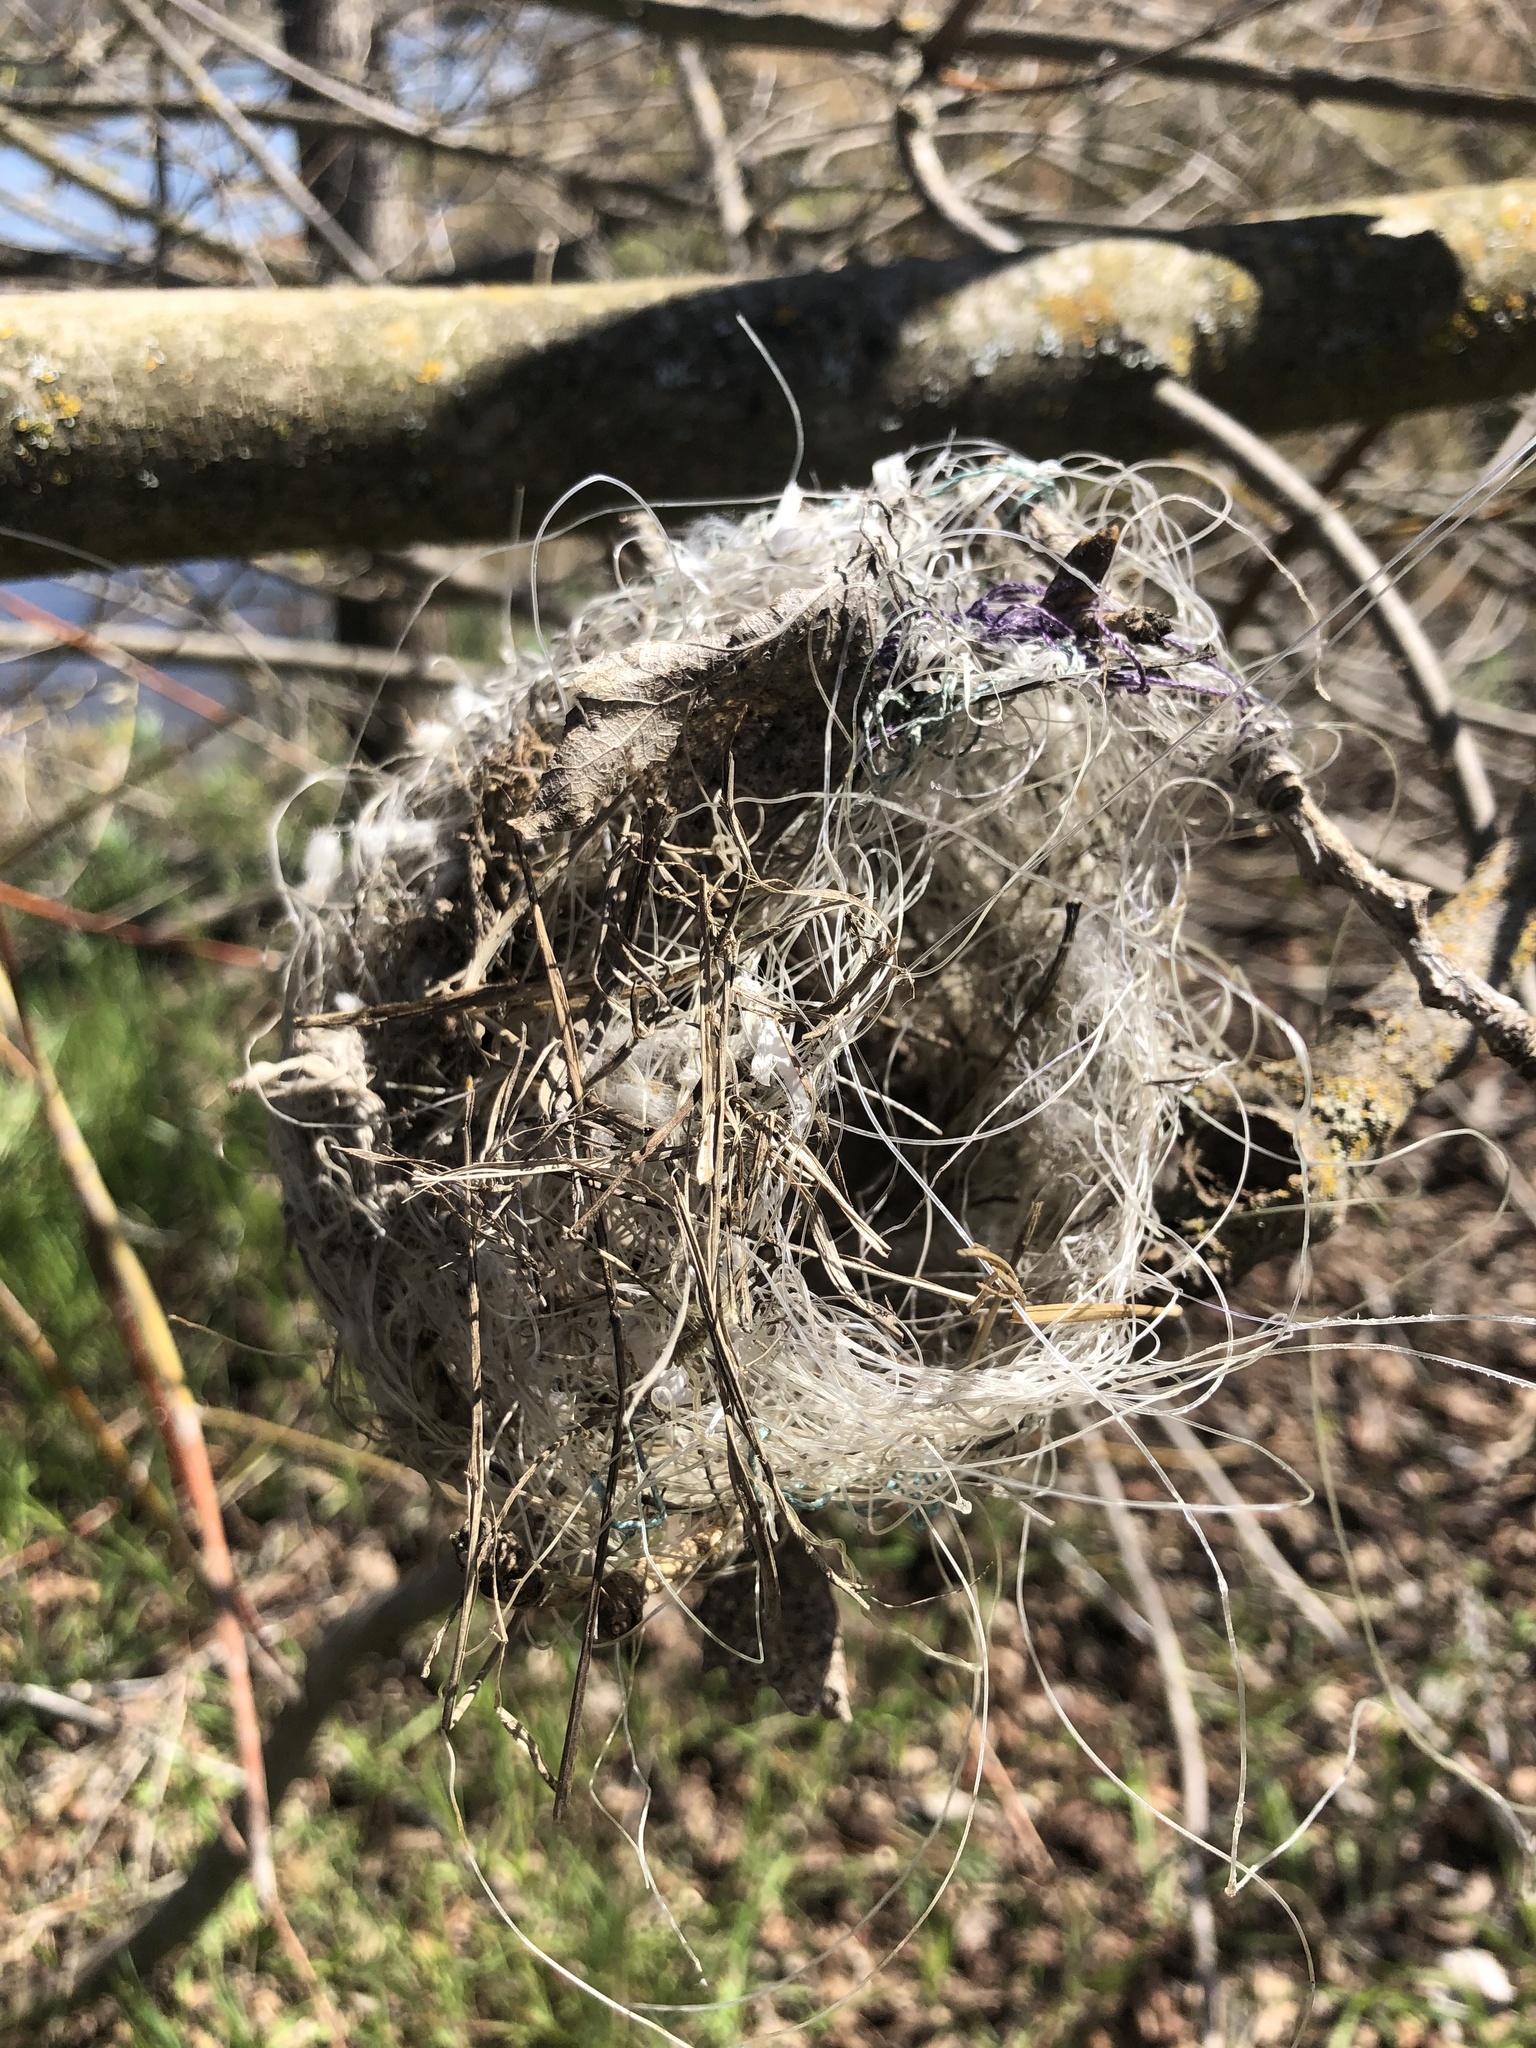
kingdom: Animalia
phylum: Chordata
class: Aves
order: Passeriformes
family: Aegithalidae
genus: Psaltriparus
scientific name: Psaltriparus minimus
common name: American bushtit
